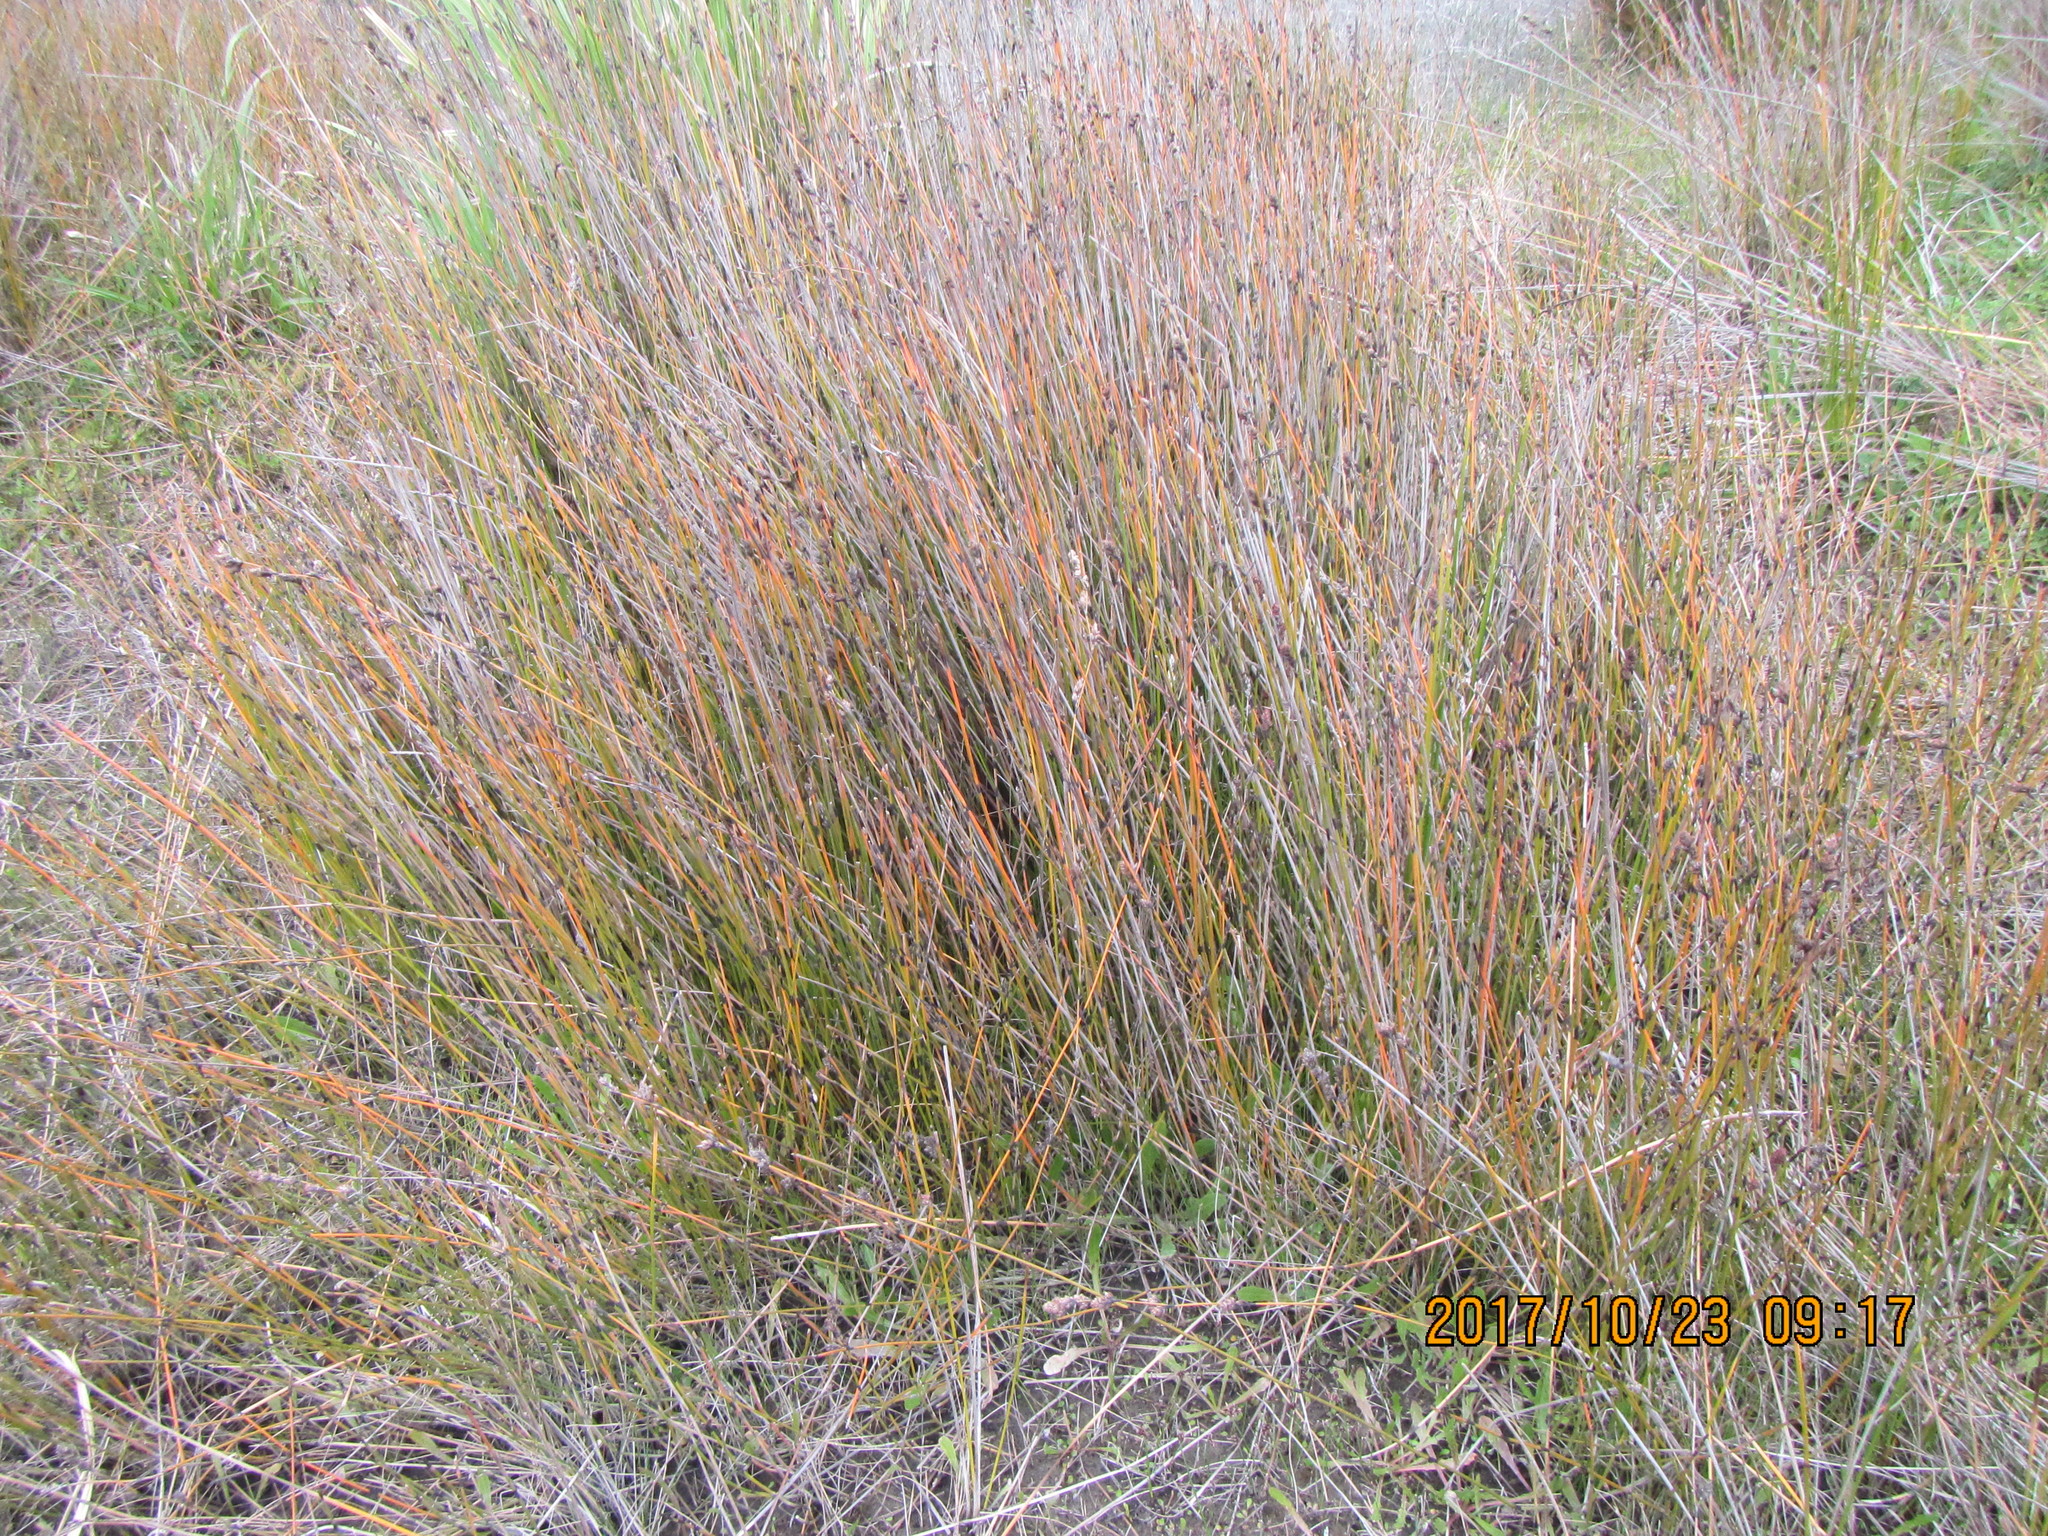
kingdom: Plantae
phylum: Tracheophyta
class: Liliopsida
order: Poales
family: Restionaceae
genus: Apodasmia
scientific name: Apodasmia similis
